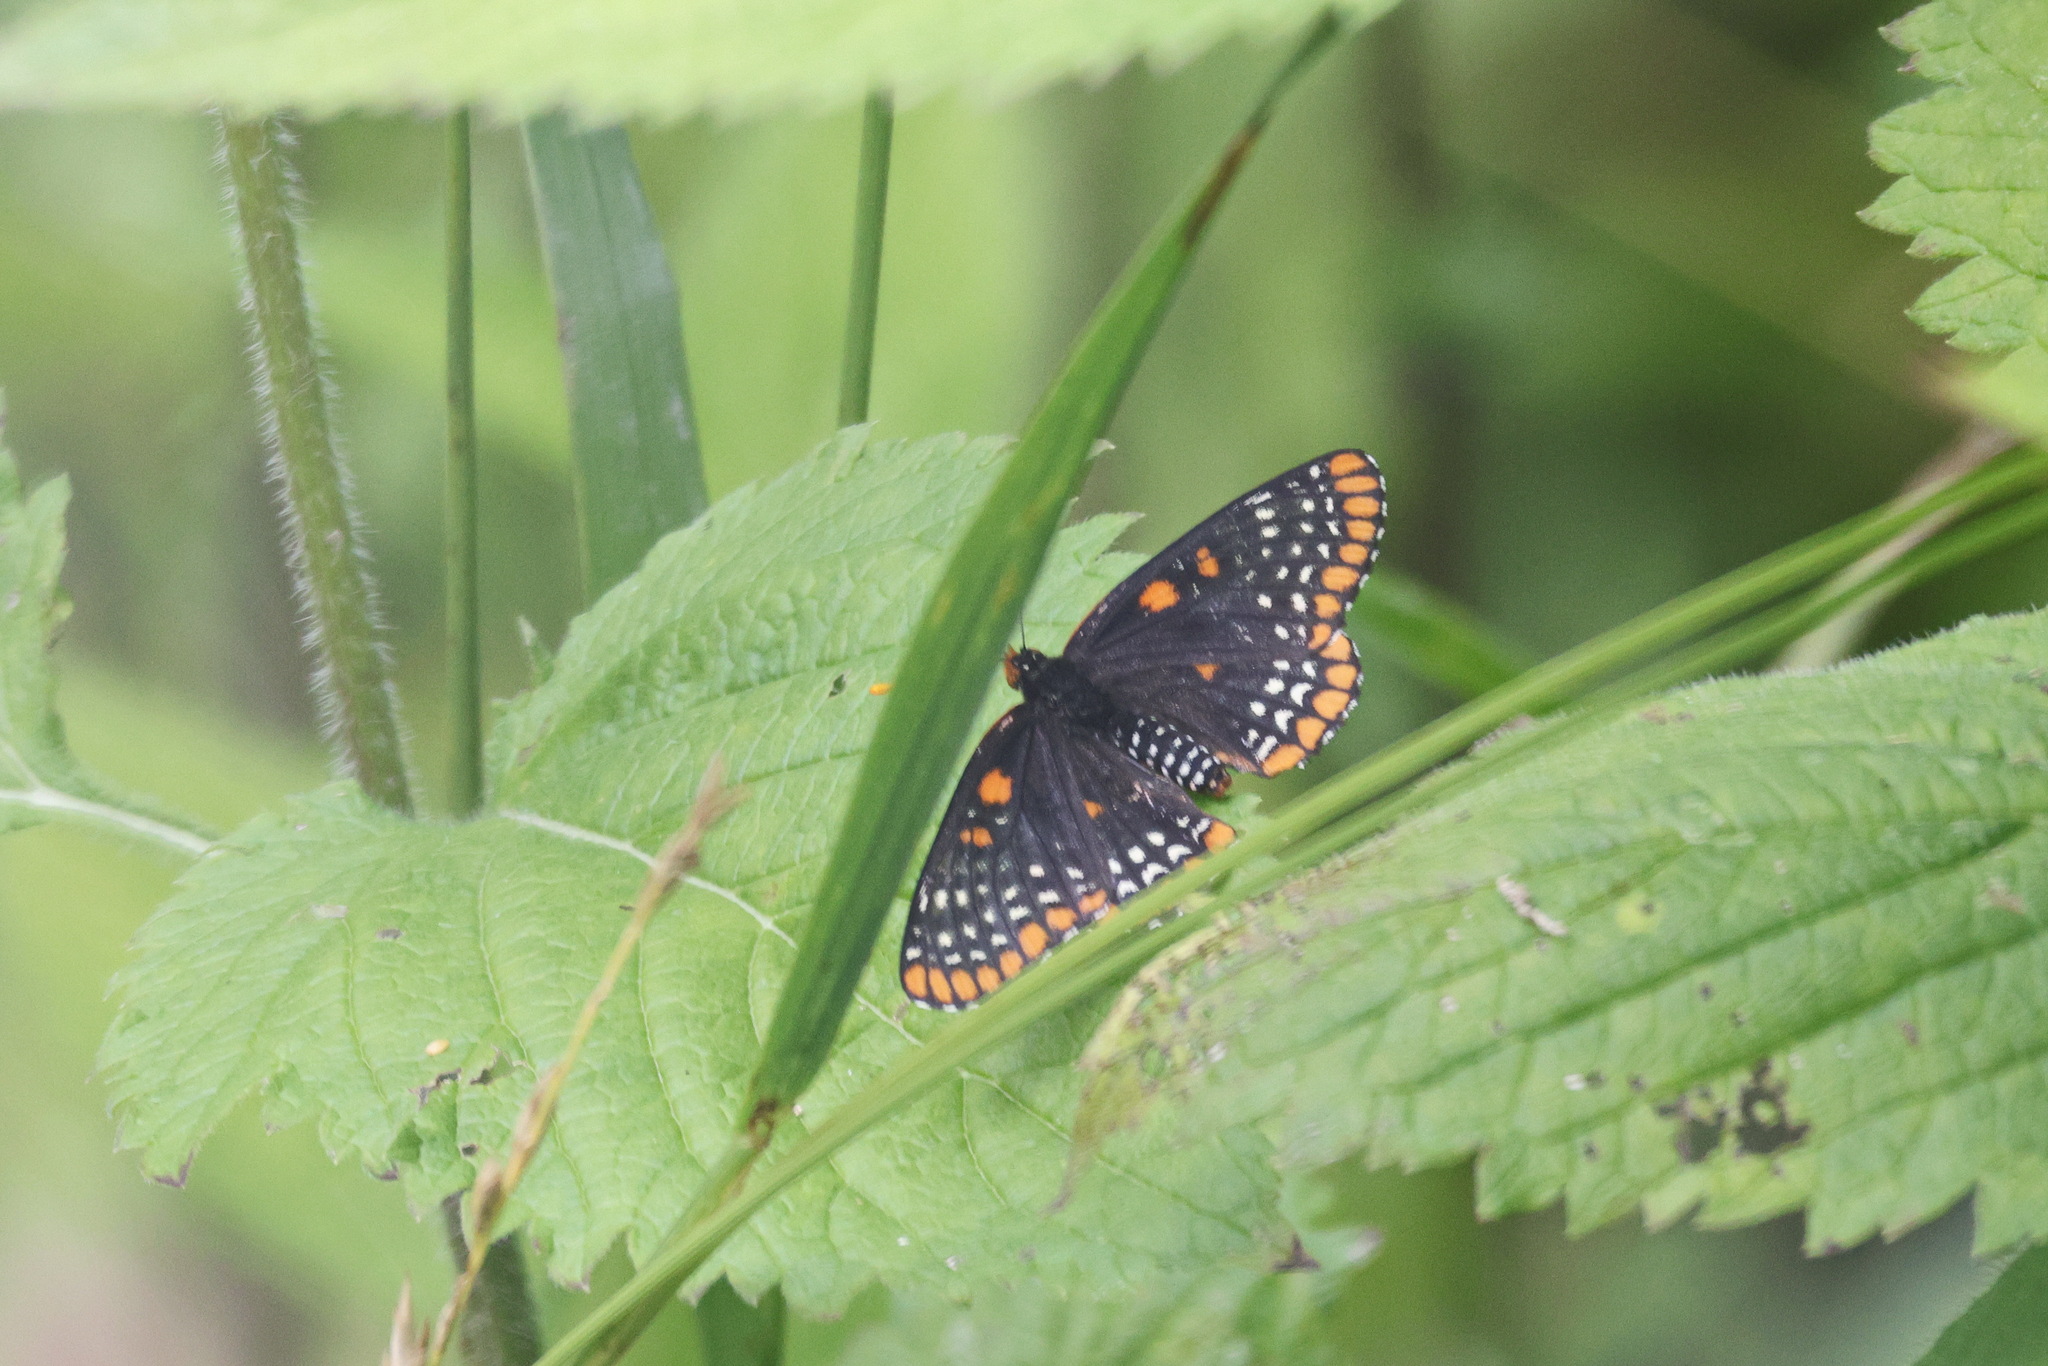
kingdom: Animalia
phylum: Arthropoda
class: Insecta
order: Lepidoptera
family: Nymphalidae
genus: Euphydryas
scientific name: Euphydryas phaeton
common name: Baltimore checkerspot
